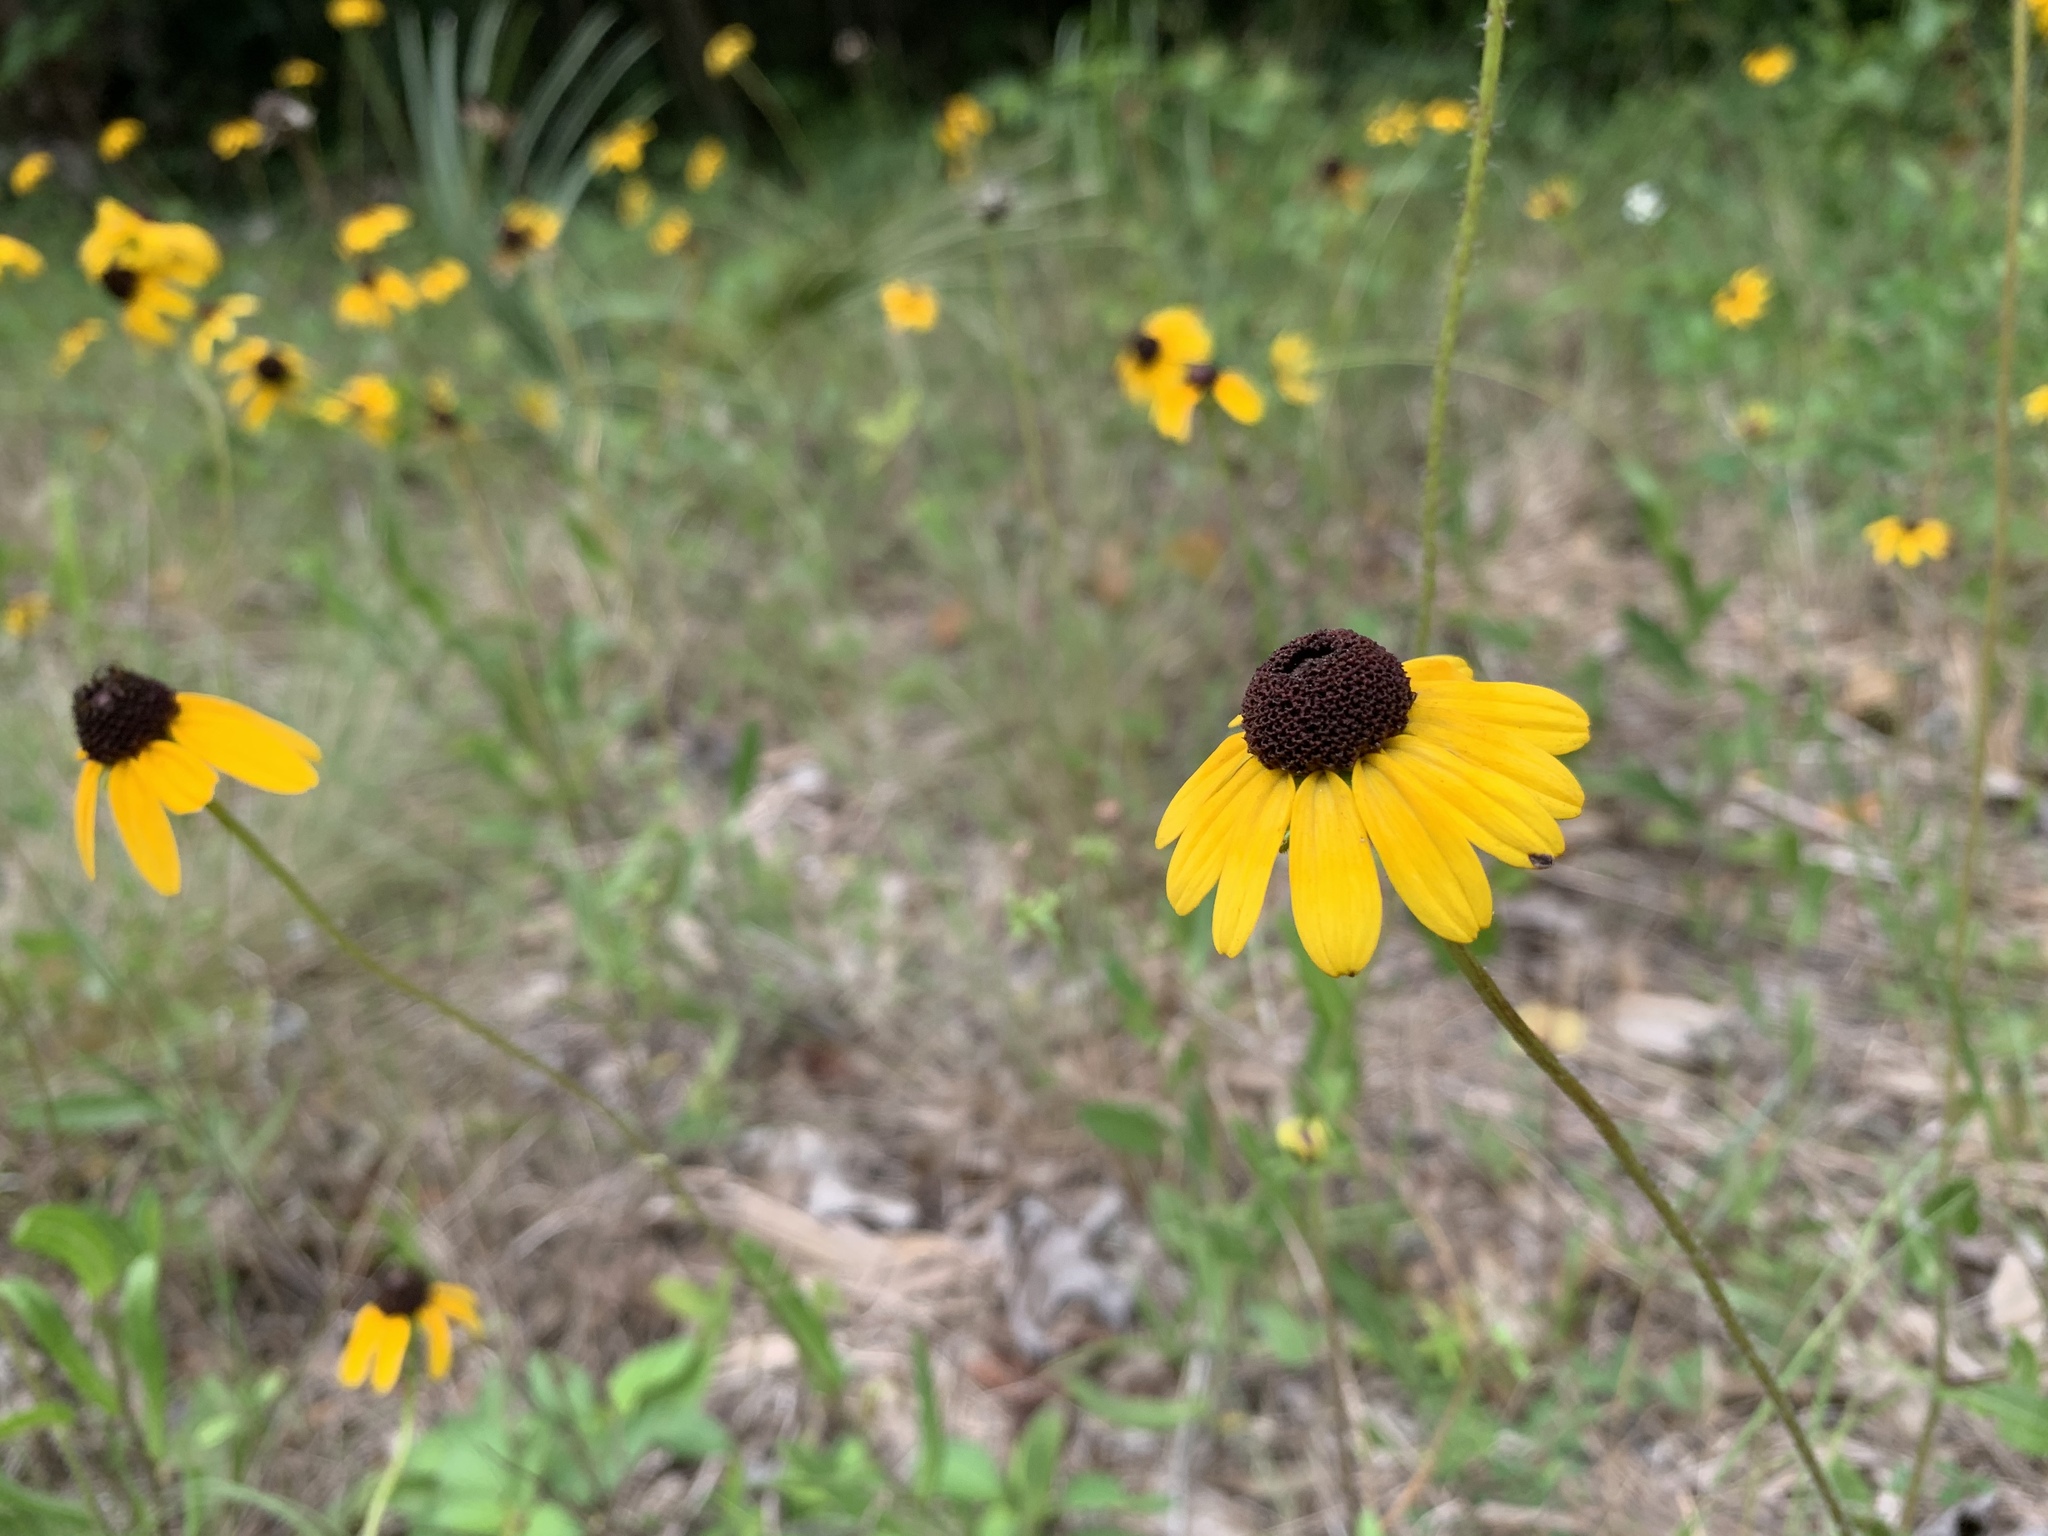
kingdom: Plantae
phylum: Tracheophyta
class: Magnoliopsida
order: Asterales
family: Asteraceae
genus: Rudbeckia
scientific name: Rudbeckia hirta
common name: Black-eyed-susan
